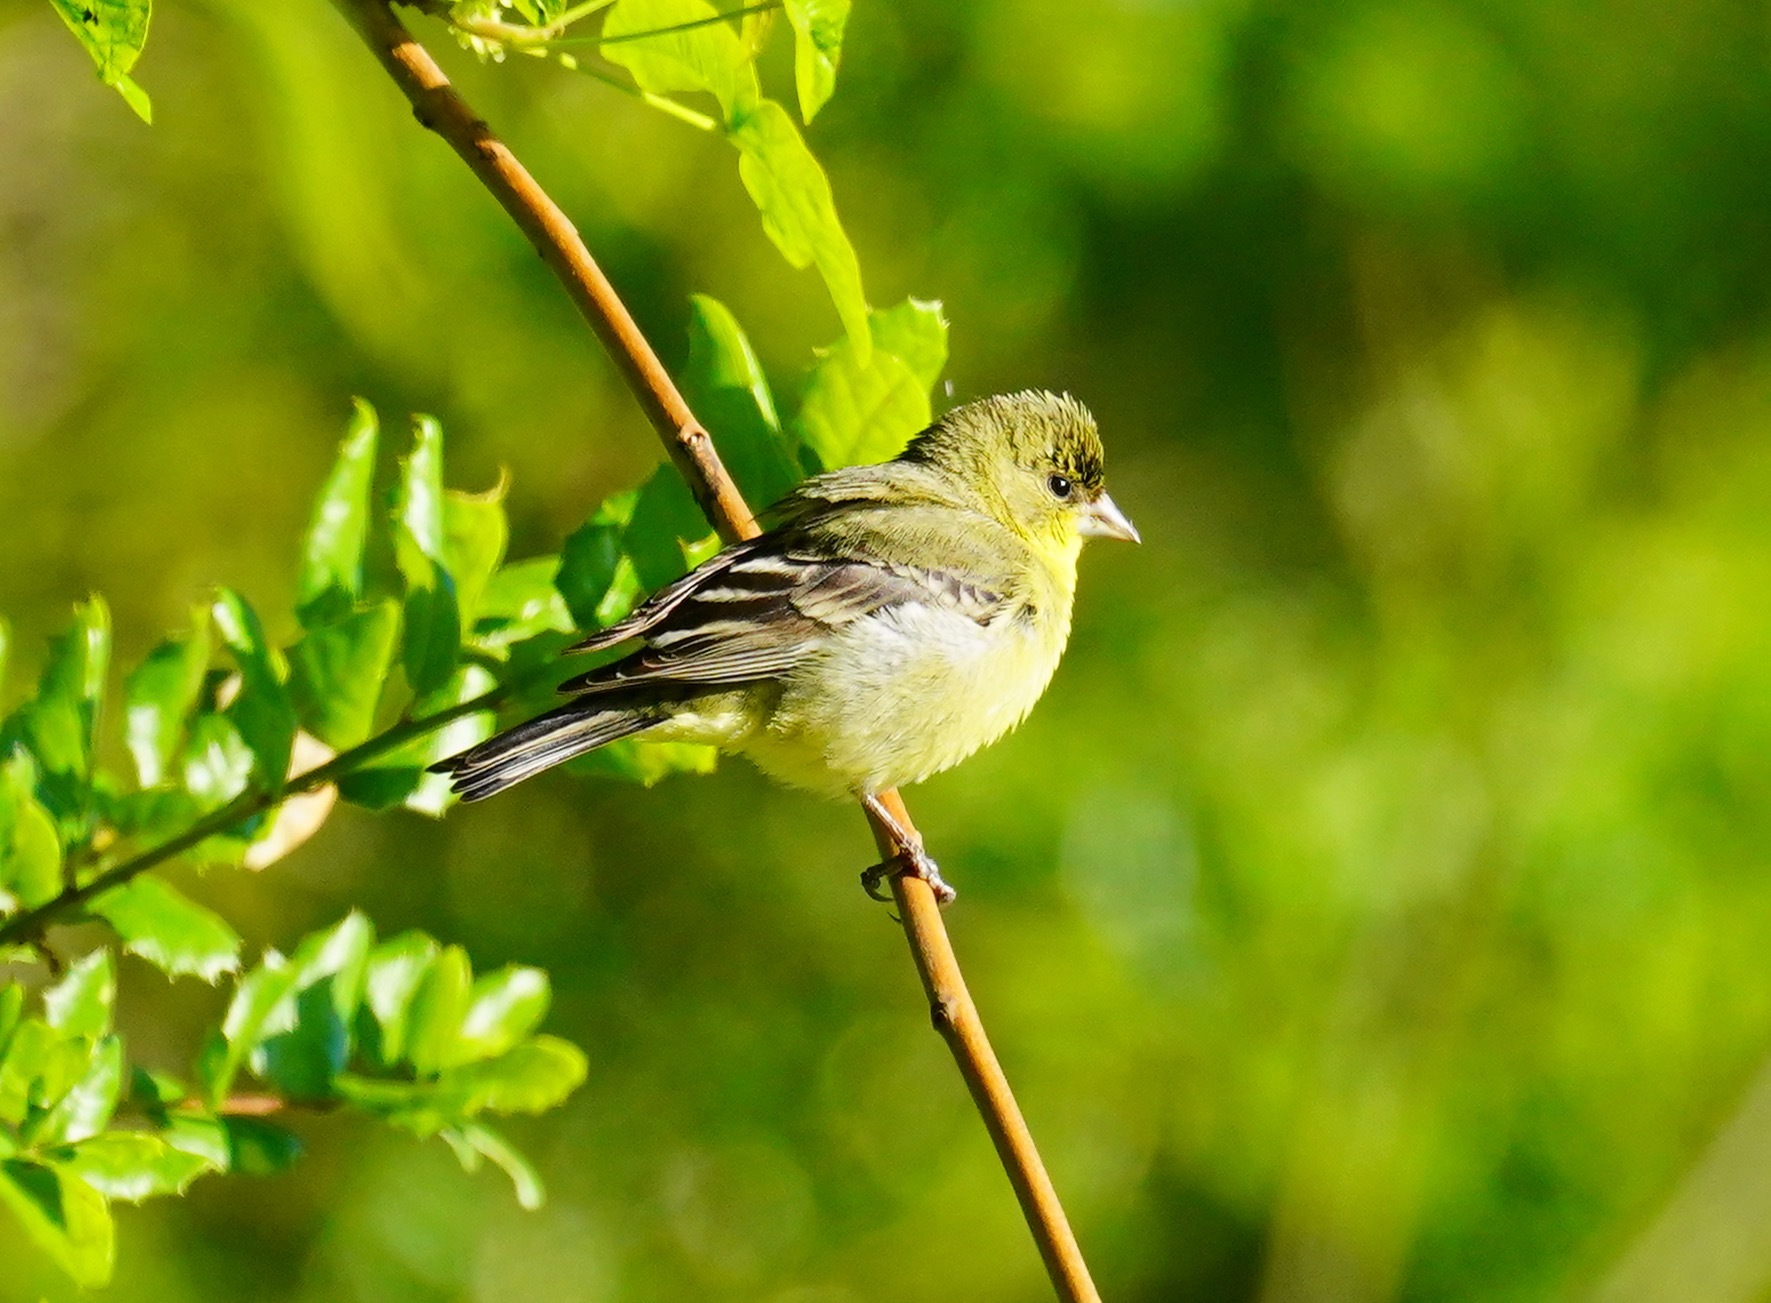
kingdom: Animalia
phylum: Chordata
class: Aves
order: Passeriformes
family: Fringillidae
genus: Spinus
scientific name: Spinus psaltria
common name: Lesser goldfinch
